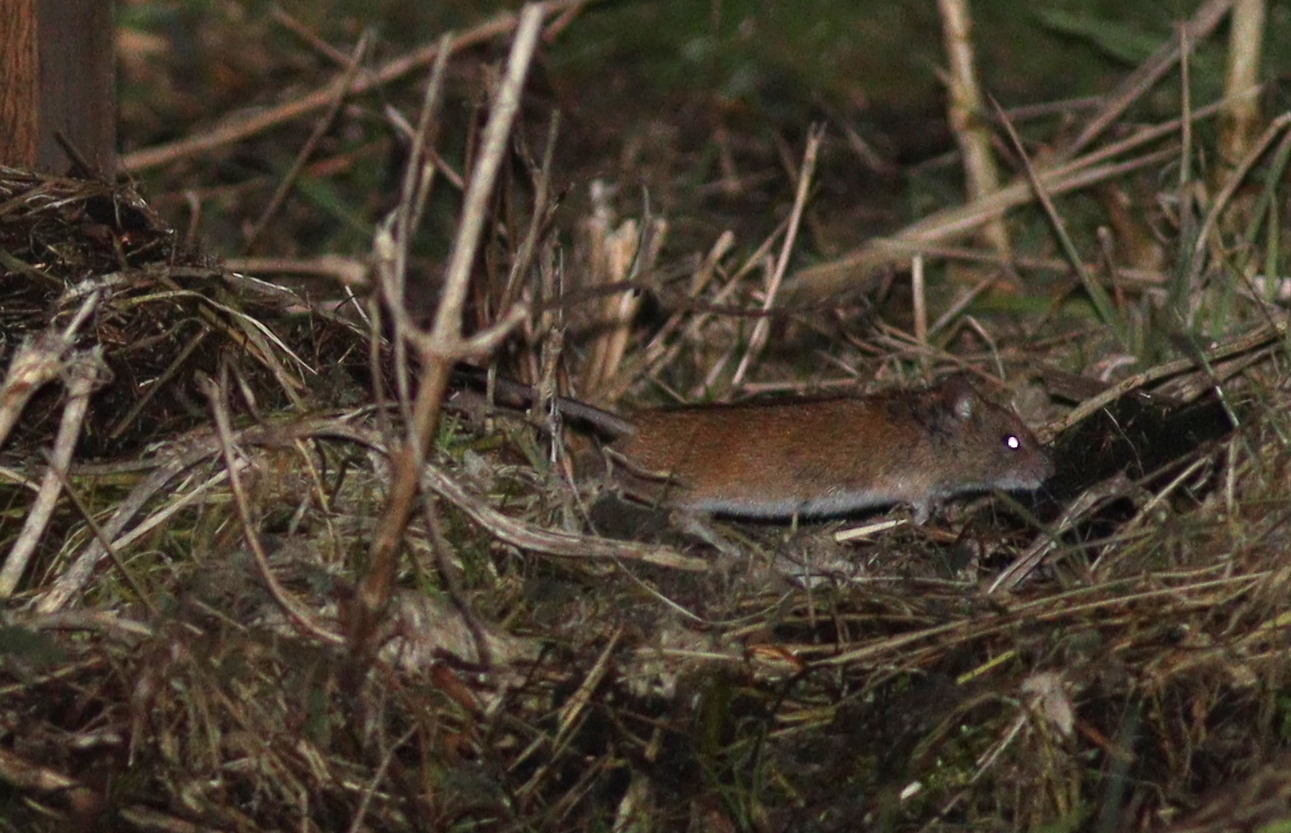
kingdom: Animalia
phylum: Chordata
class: Mammalia
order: Rodentia
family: Muridae
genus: Apodemus
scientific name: Apodemus agrarius
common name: Striped field mouse
